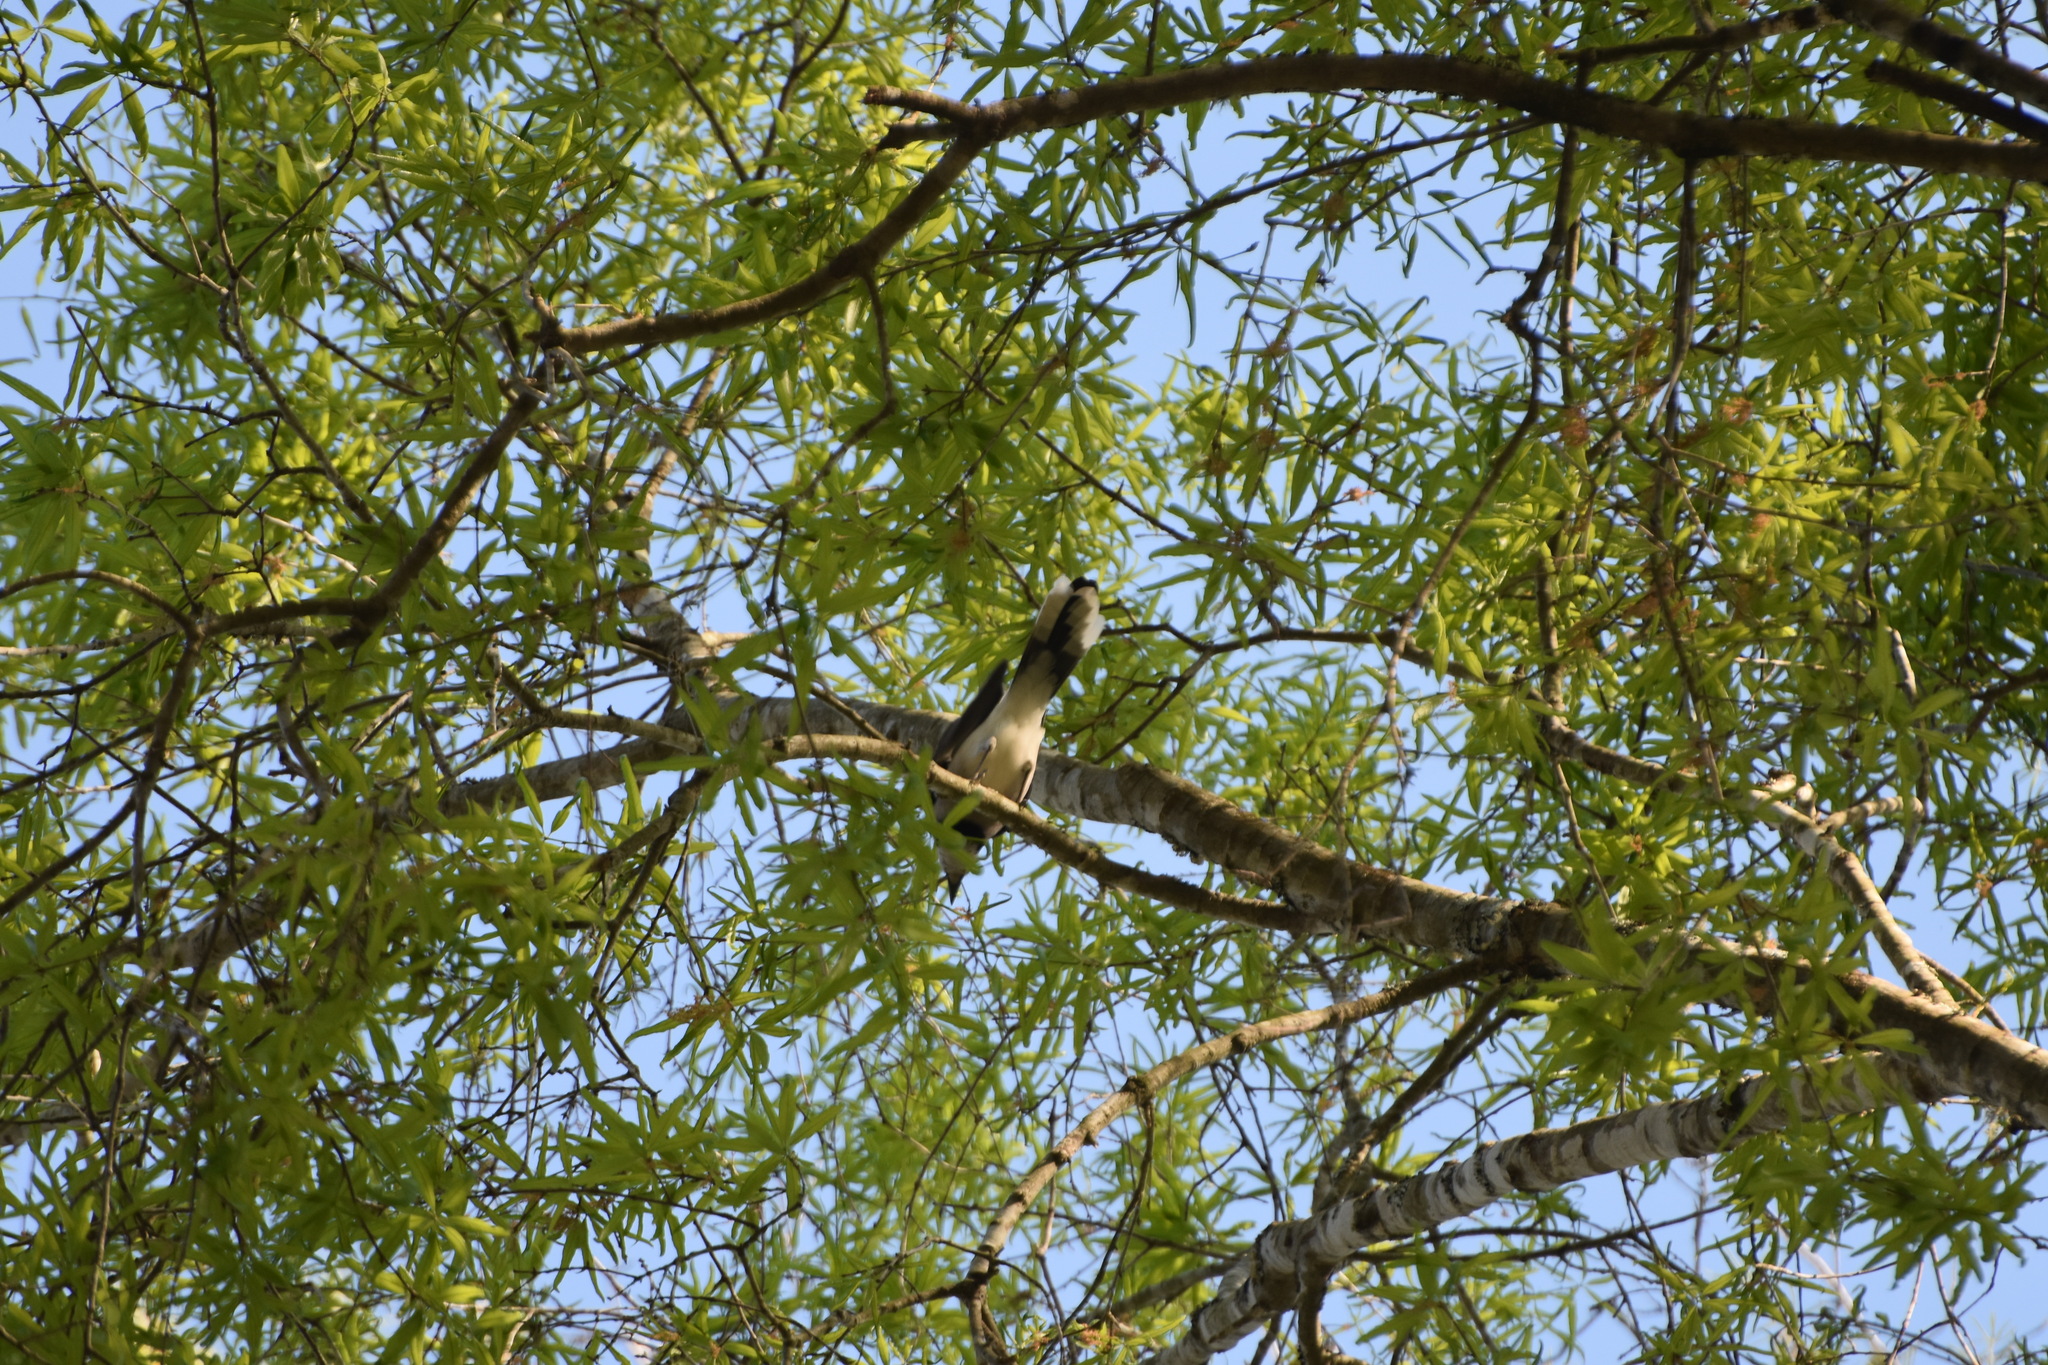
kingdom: Animalia
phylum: Chordata
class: Aves
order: Passeriformes
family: Corvidae
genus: Cyanocitta
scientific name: Cyanocitta cristata
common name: Blue jay
